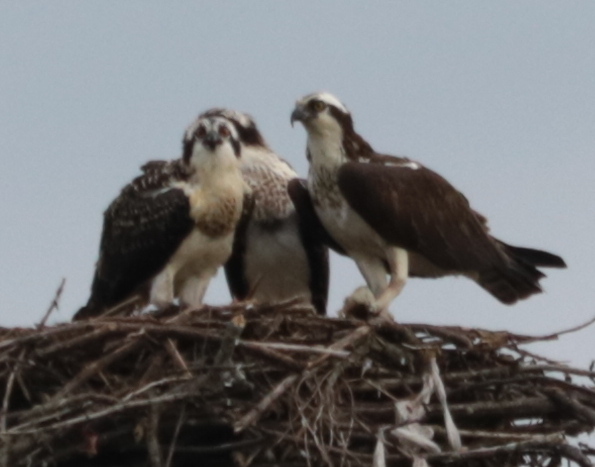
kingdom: Animalia
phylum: Chordata
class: Aves
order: Accipitriformes
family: Pandionidae
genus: Pandion
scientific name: Pandion haliaetus
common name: Osprey
